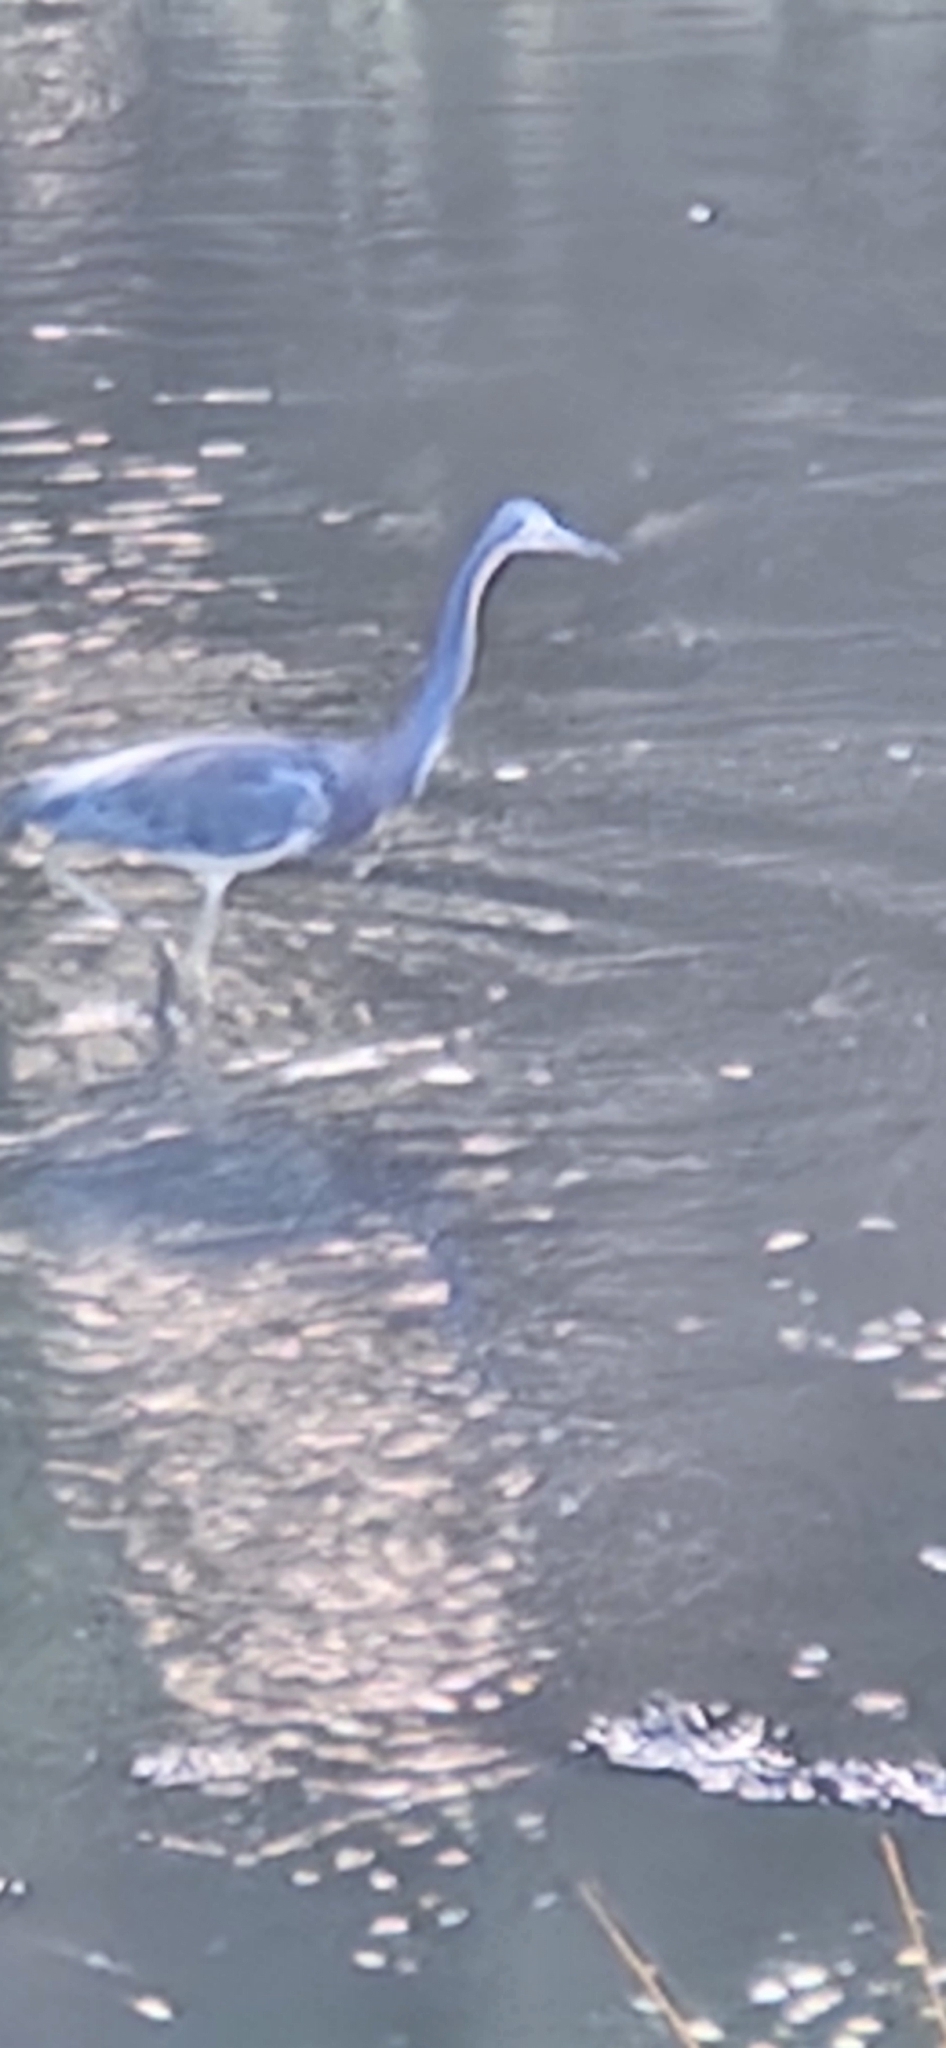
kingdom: Animalia
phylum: Chordata
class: Aves
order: Pelecaniformes
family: Ardeidae
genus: Egretta
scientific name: Egretta tricolor
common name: Tricolored heron
